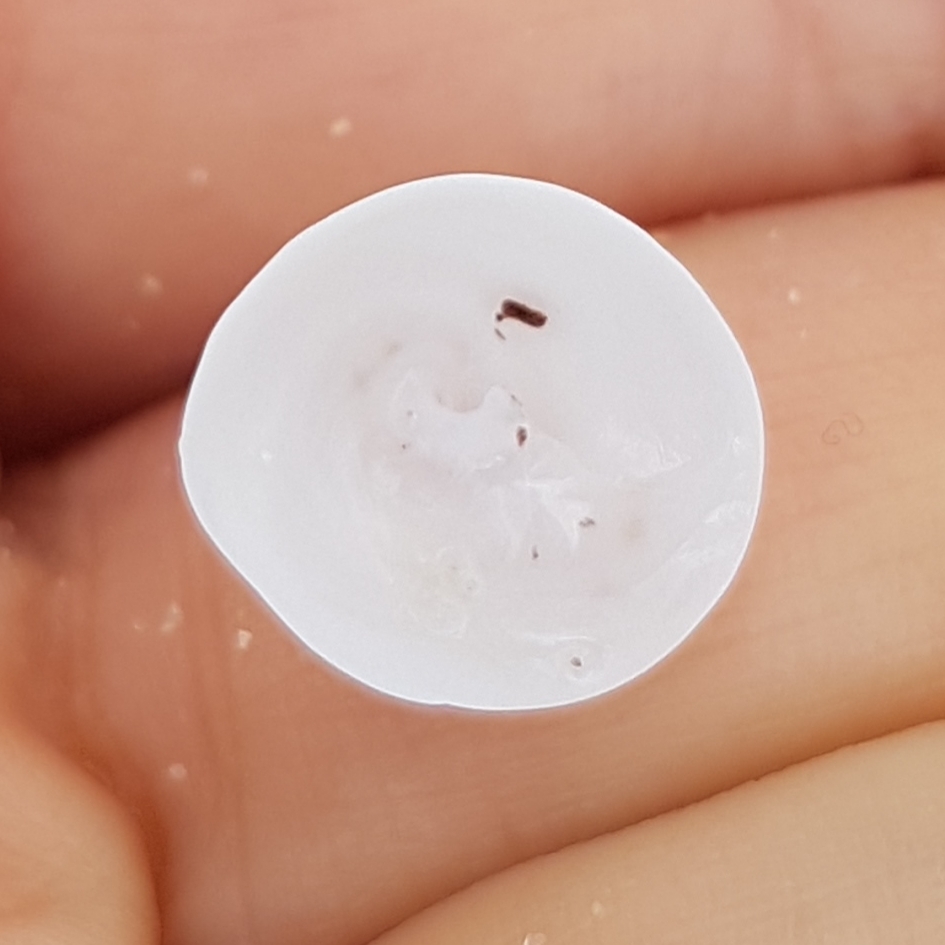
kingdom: Animalia
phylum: Mollusca
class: Gastropoda
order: Littorinimorpha
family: Calyptraeidae
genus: Calyptraea
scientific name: Calyptraea chinensis
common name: Chinaman's hat
